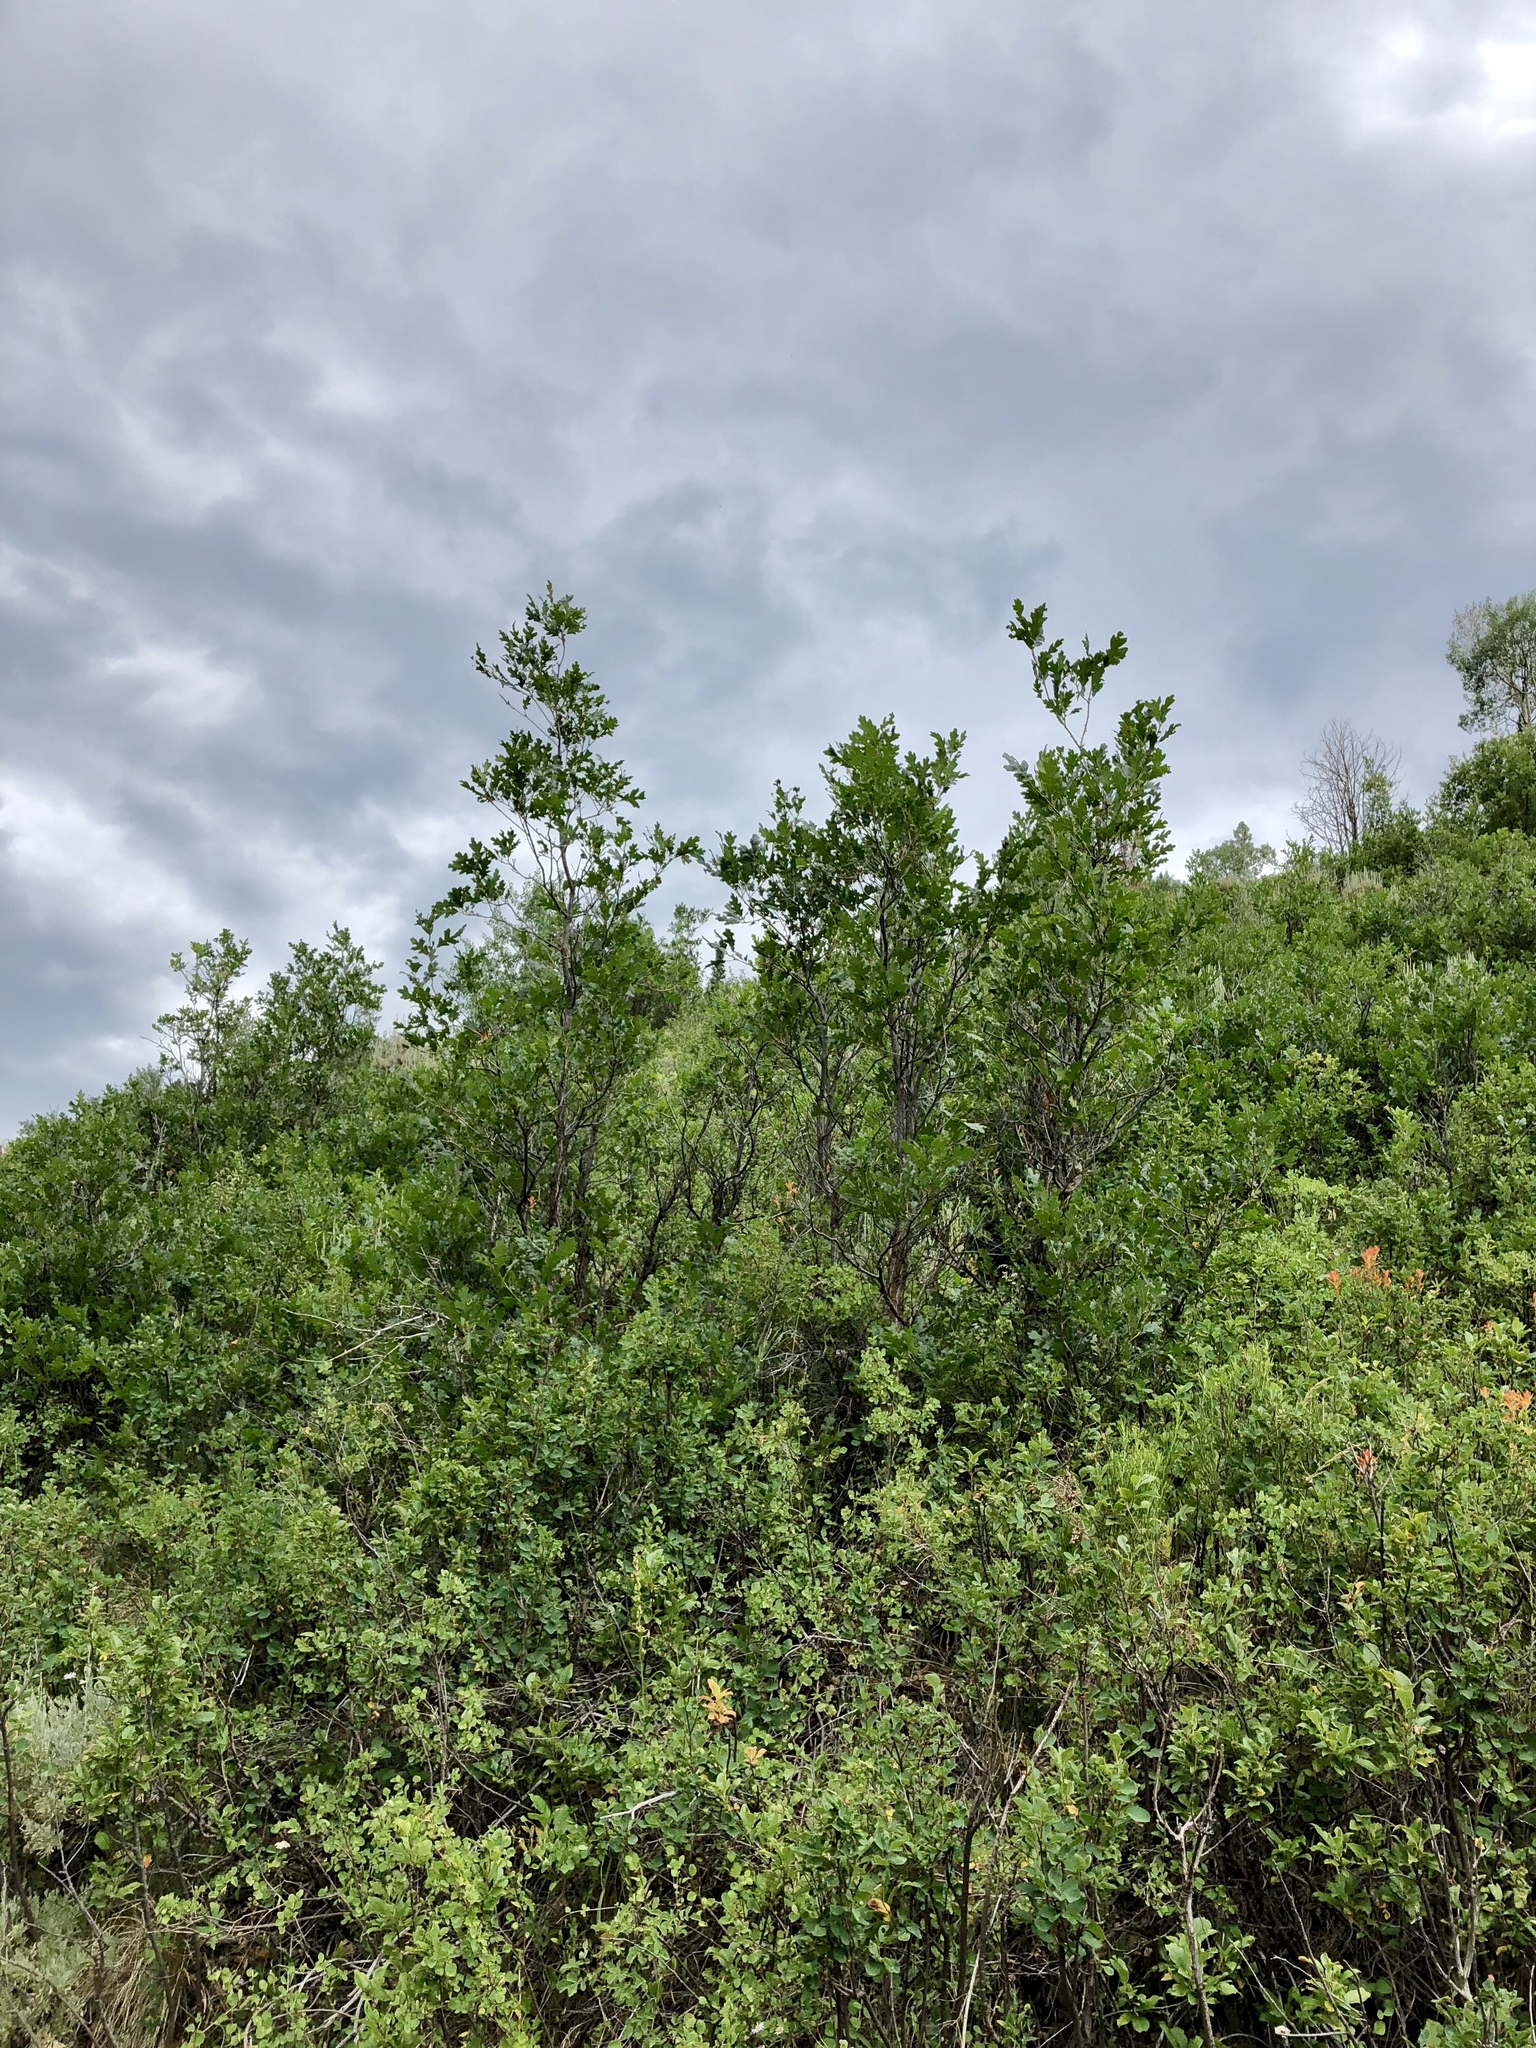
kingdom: Plantae
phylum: Tracheophyta
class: Magnoliopsida
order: Fagales
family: Fagaceae
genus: Quercus
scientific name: Quercus gambelii
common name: Gambel oak
